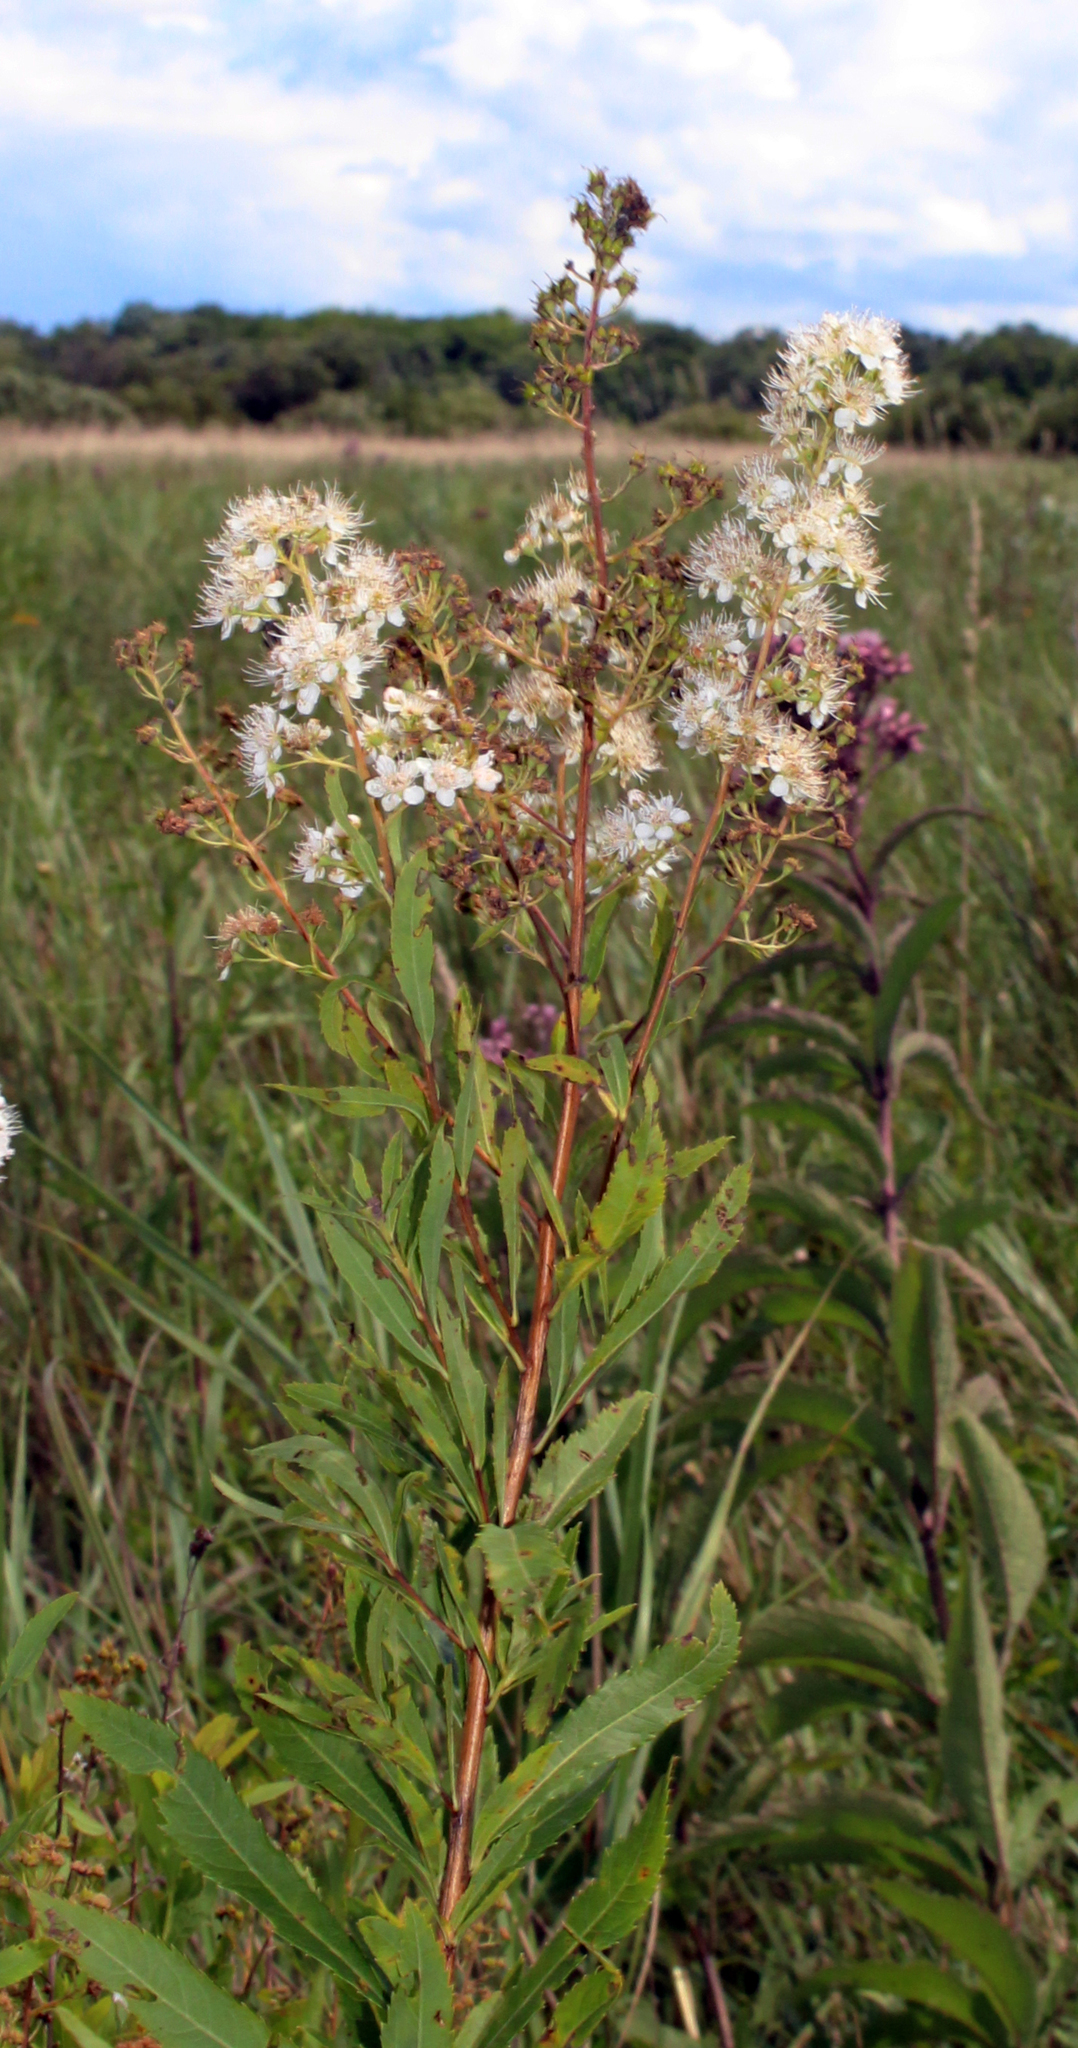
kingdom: Plantae
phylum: Tracheophyta
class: Magnoliopsida
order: Rosales
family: Rosaceae
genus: Spiraea
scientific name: Spiraea alba
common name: Pale bridewort
